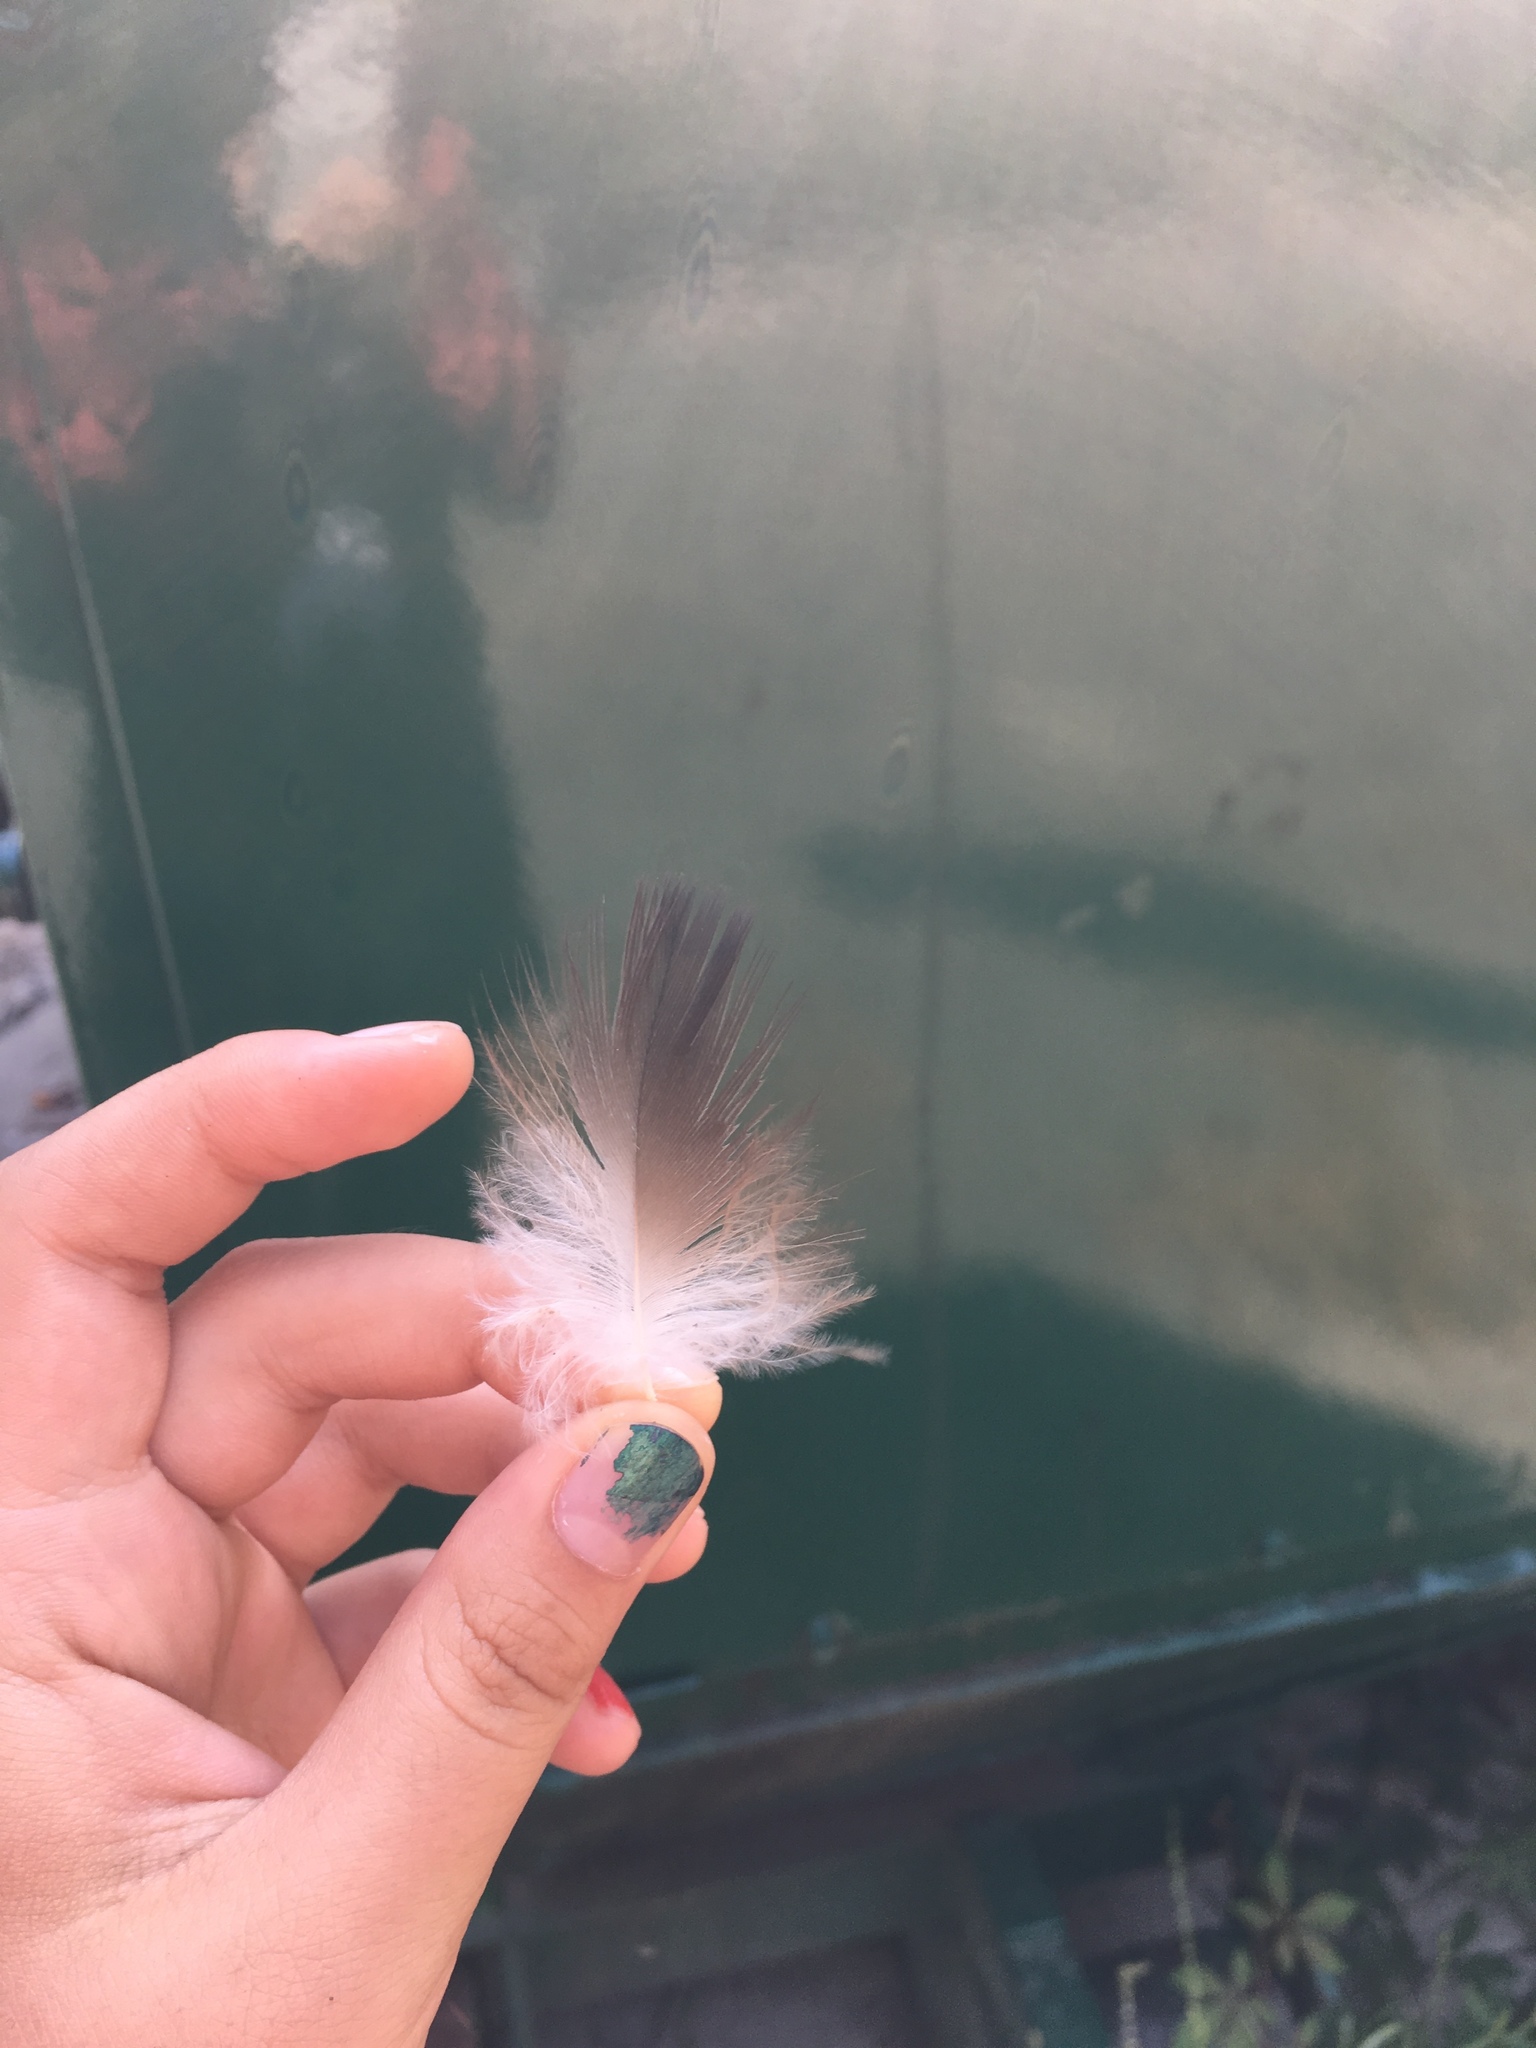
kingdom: Animalia
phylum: Chordata
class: Aves
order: Accipitriformes
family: Cathartidae
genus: Cathartes
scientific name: Cathartes aura
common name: Turkey vulture
